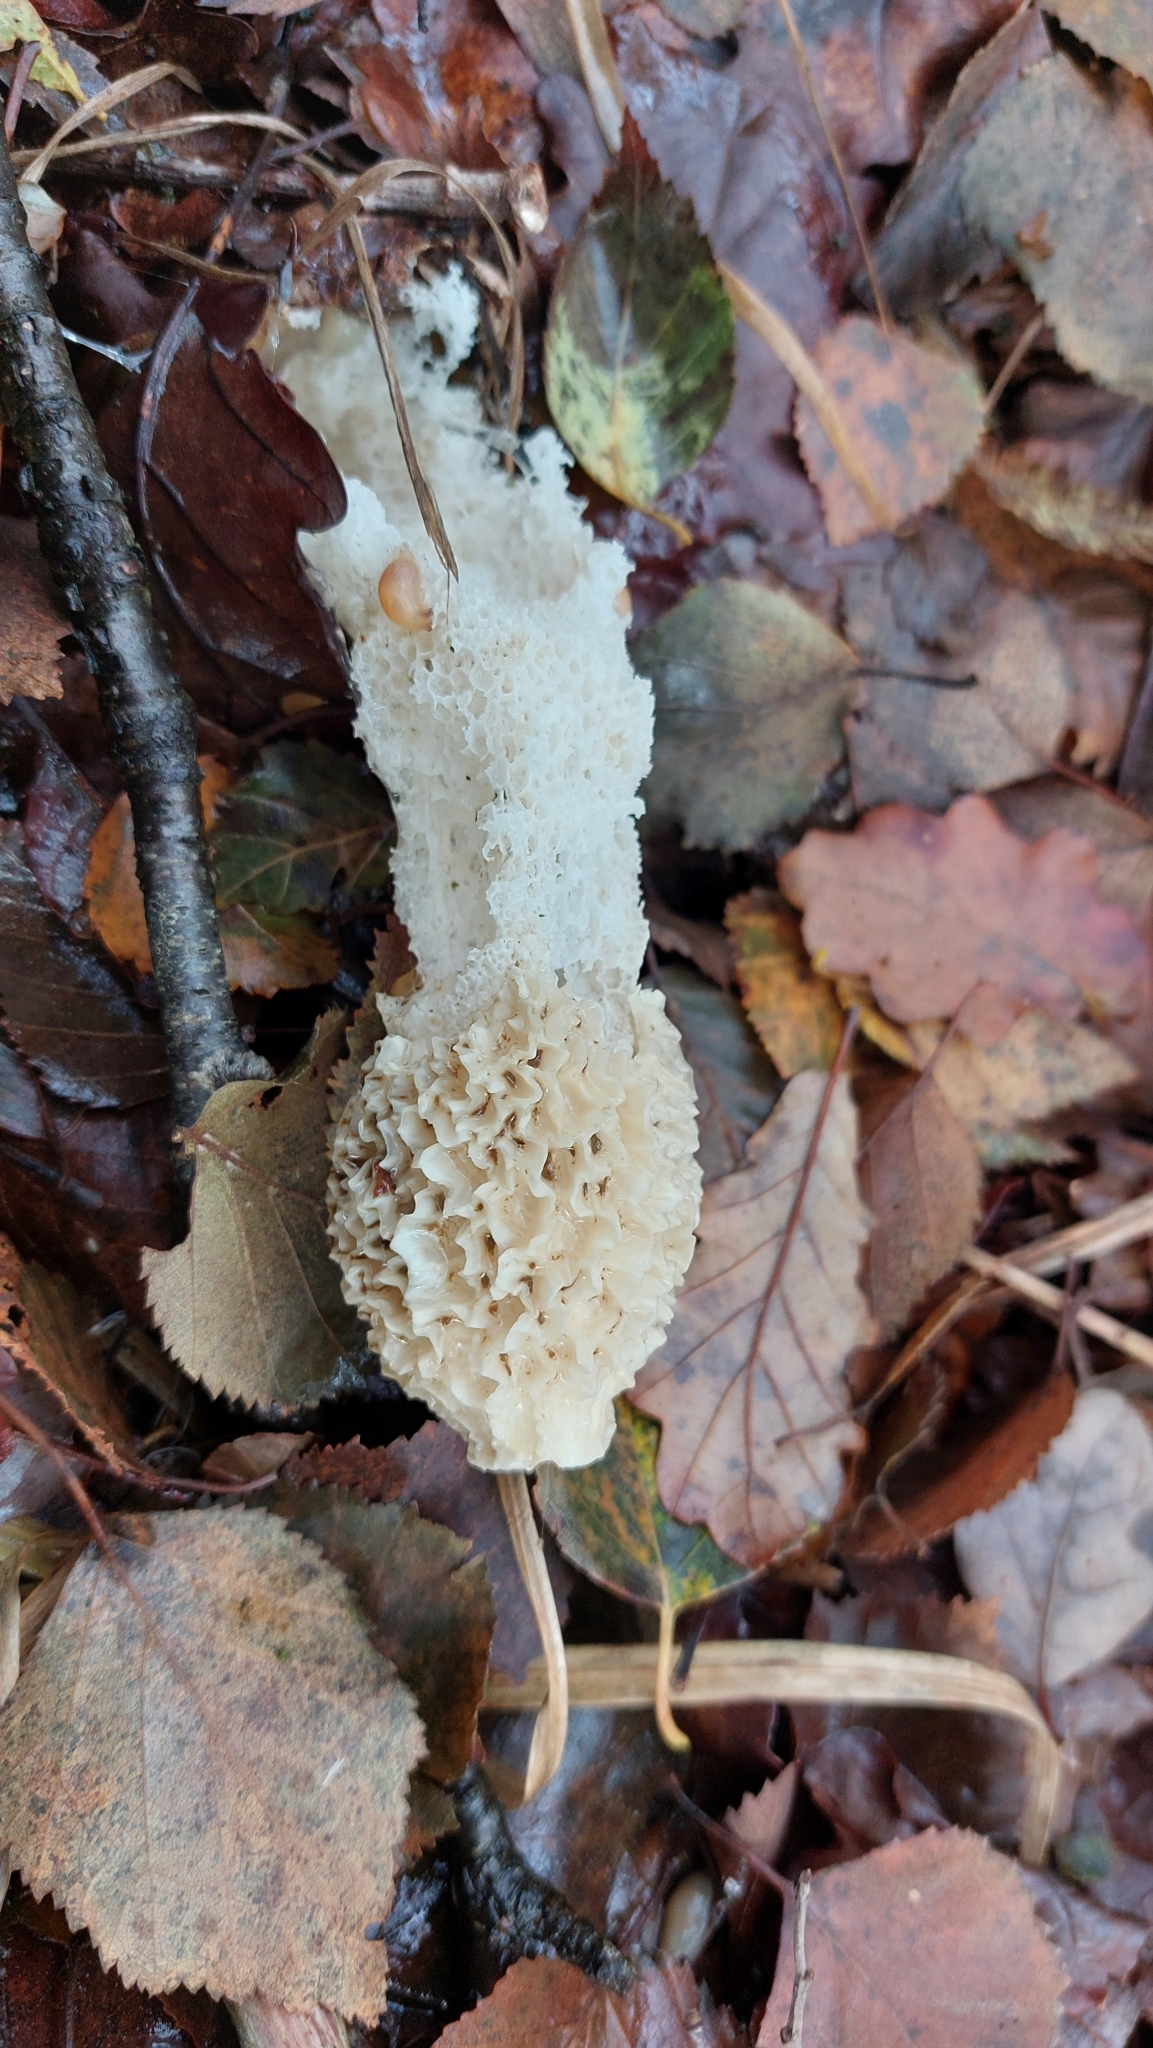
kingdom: Fungi
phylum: Basidiomycota
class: Agaricomycetes
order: Phallales
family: Phallaceae
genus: Phallus
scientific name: Phallus impudicus
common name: Common stinkhorn
